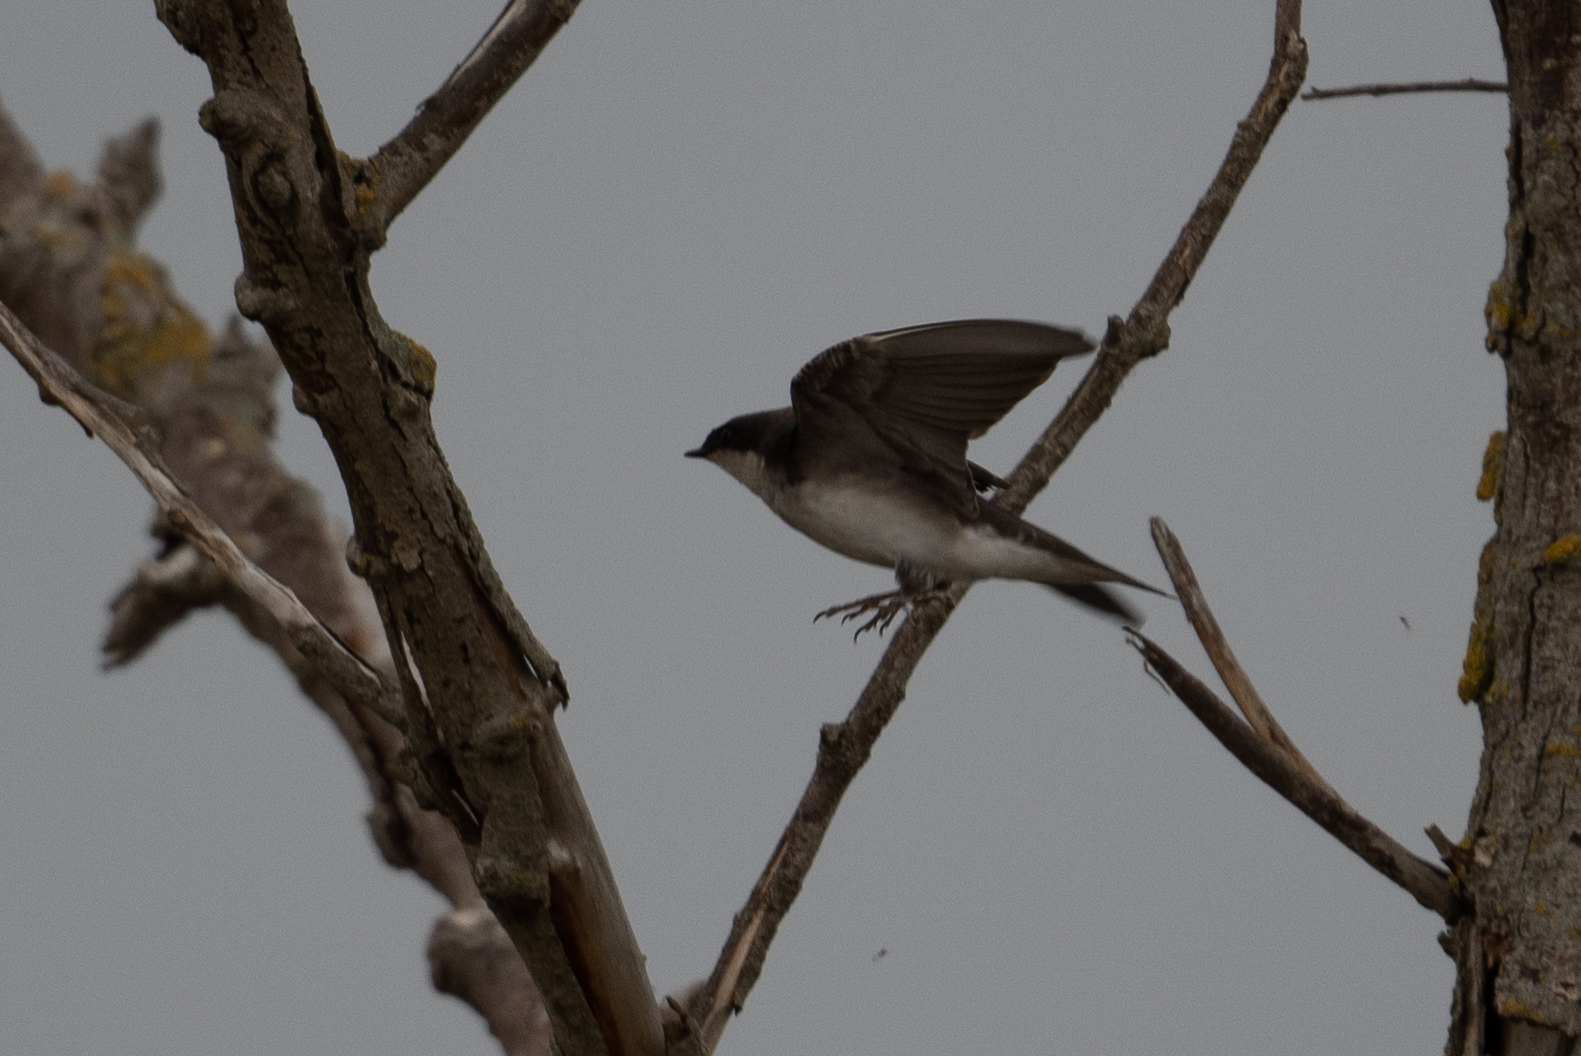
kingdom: Animalia
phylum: Chordata
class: Aves
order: Passeriformes
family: Hirundinidae
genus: Tachycineta
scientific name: Tachycineta bicolor
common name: Tree swallow
